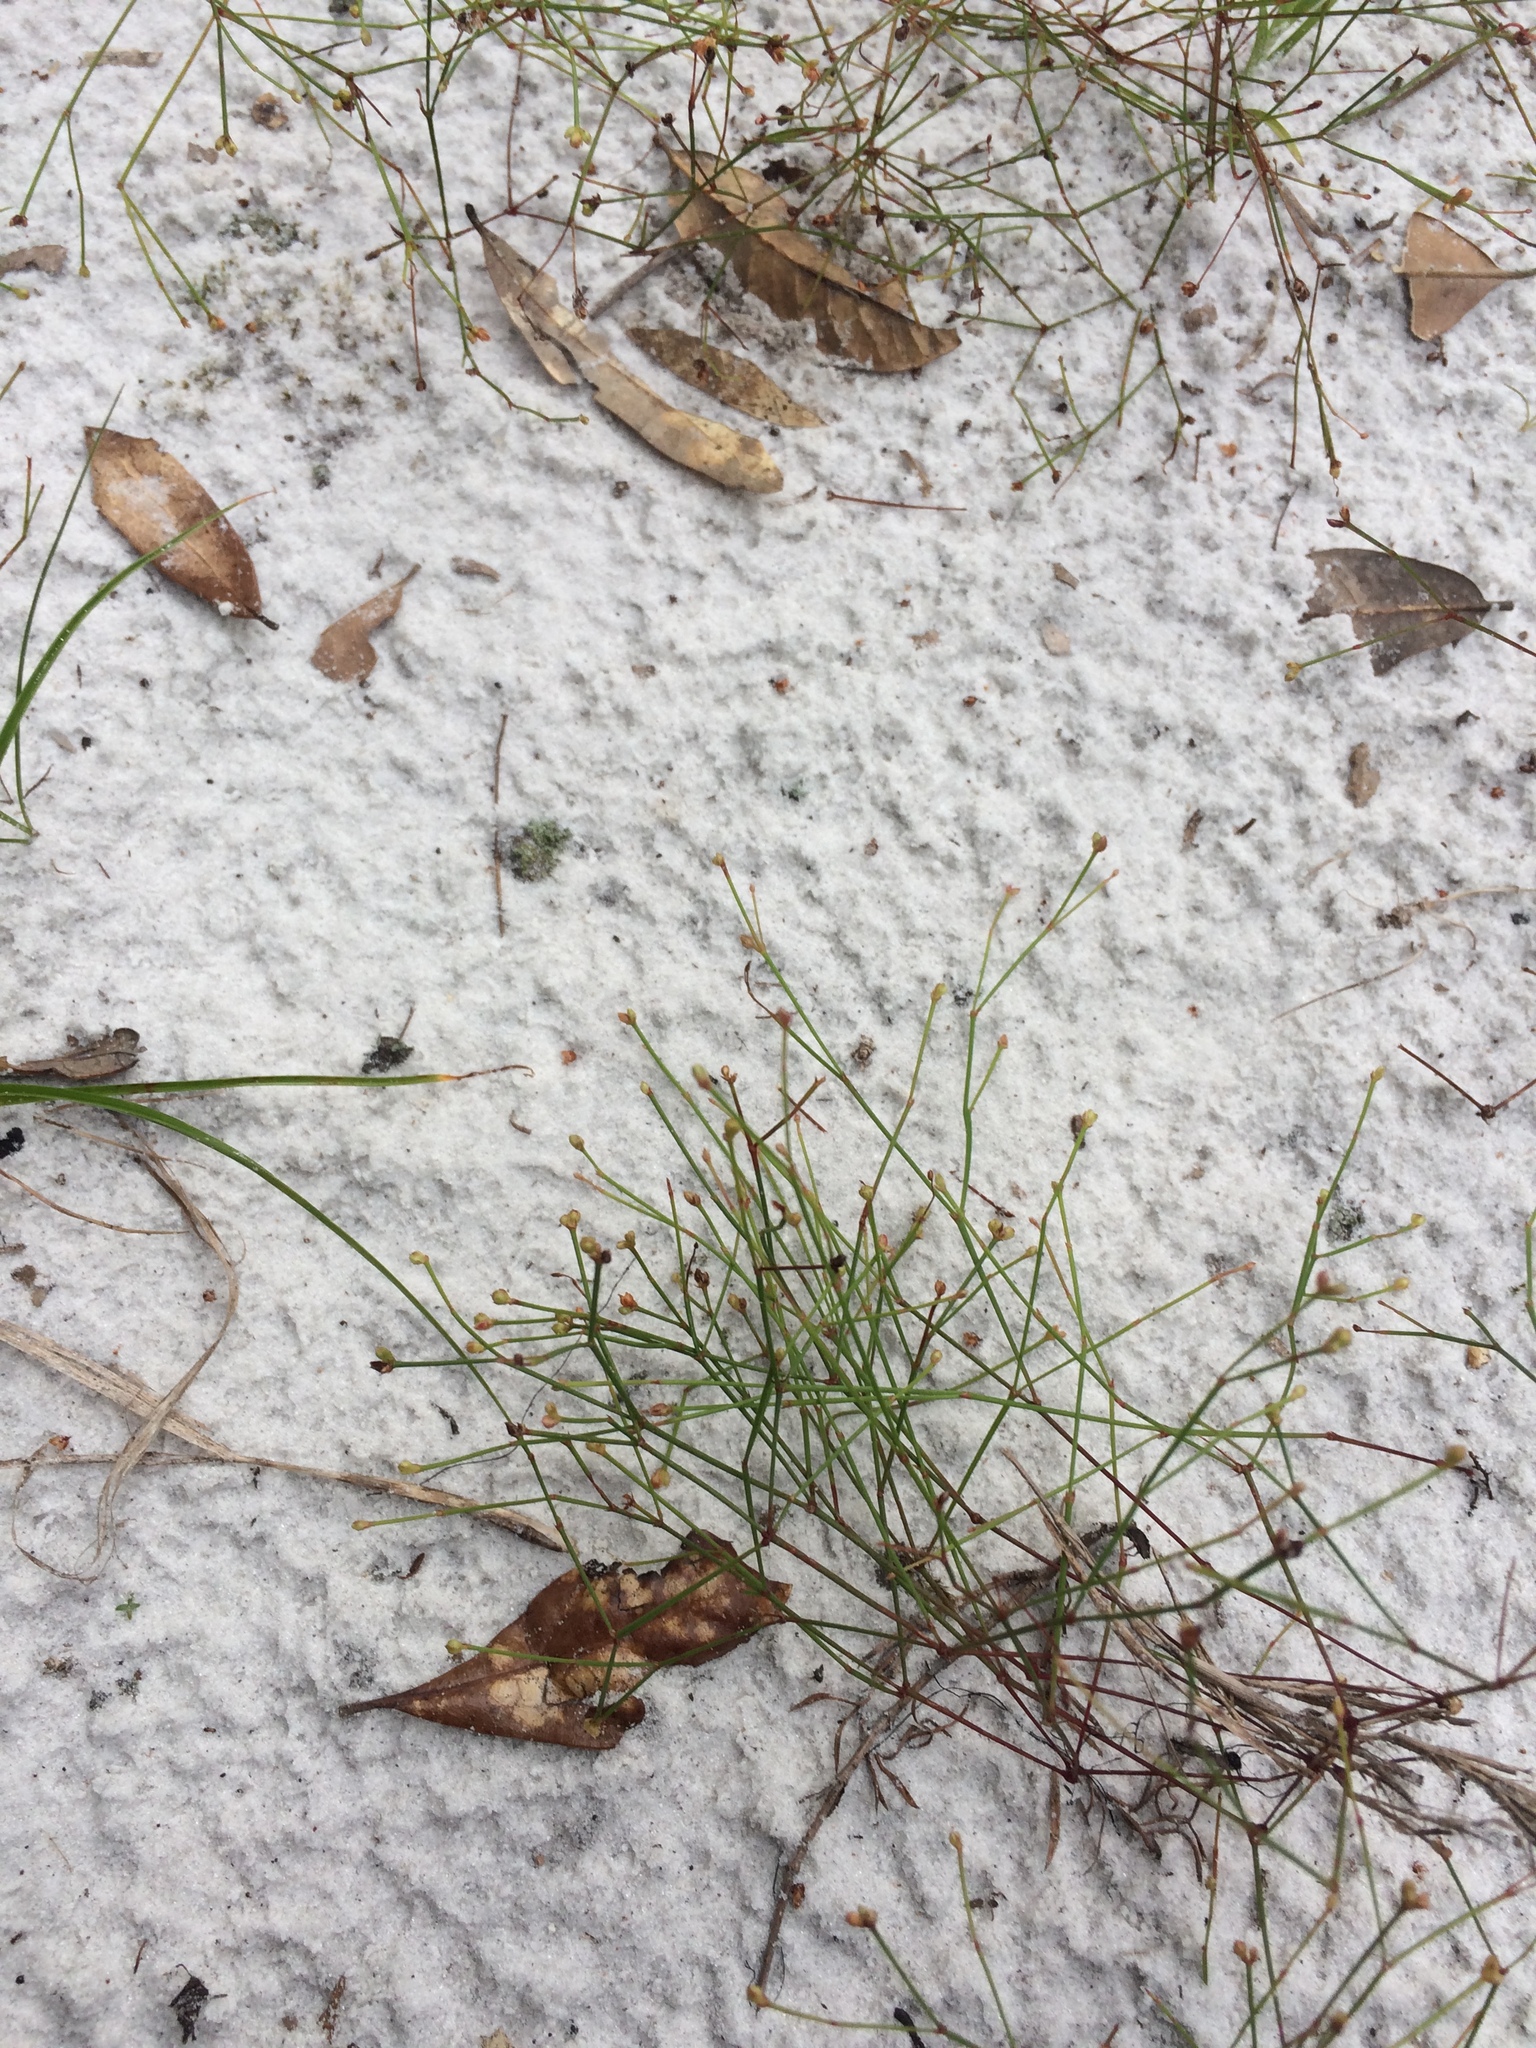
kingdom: Plantae
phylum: Tracheophyta
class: Magnoliopsida
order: Caryophyllales
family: Caryophyllaceae
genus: Stipulicida
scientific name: Stipulicida setacea
